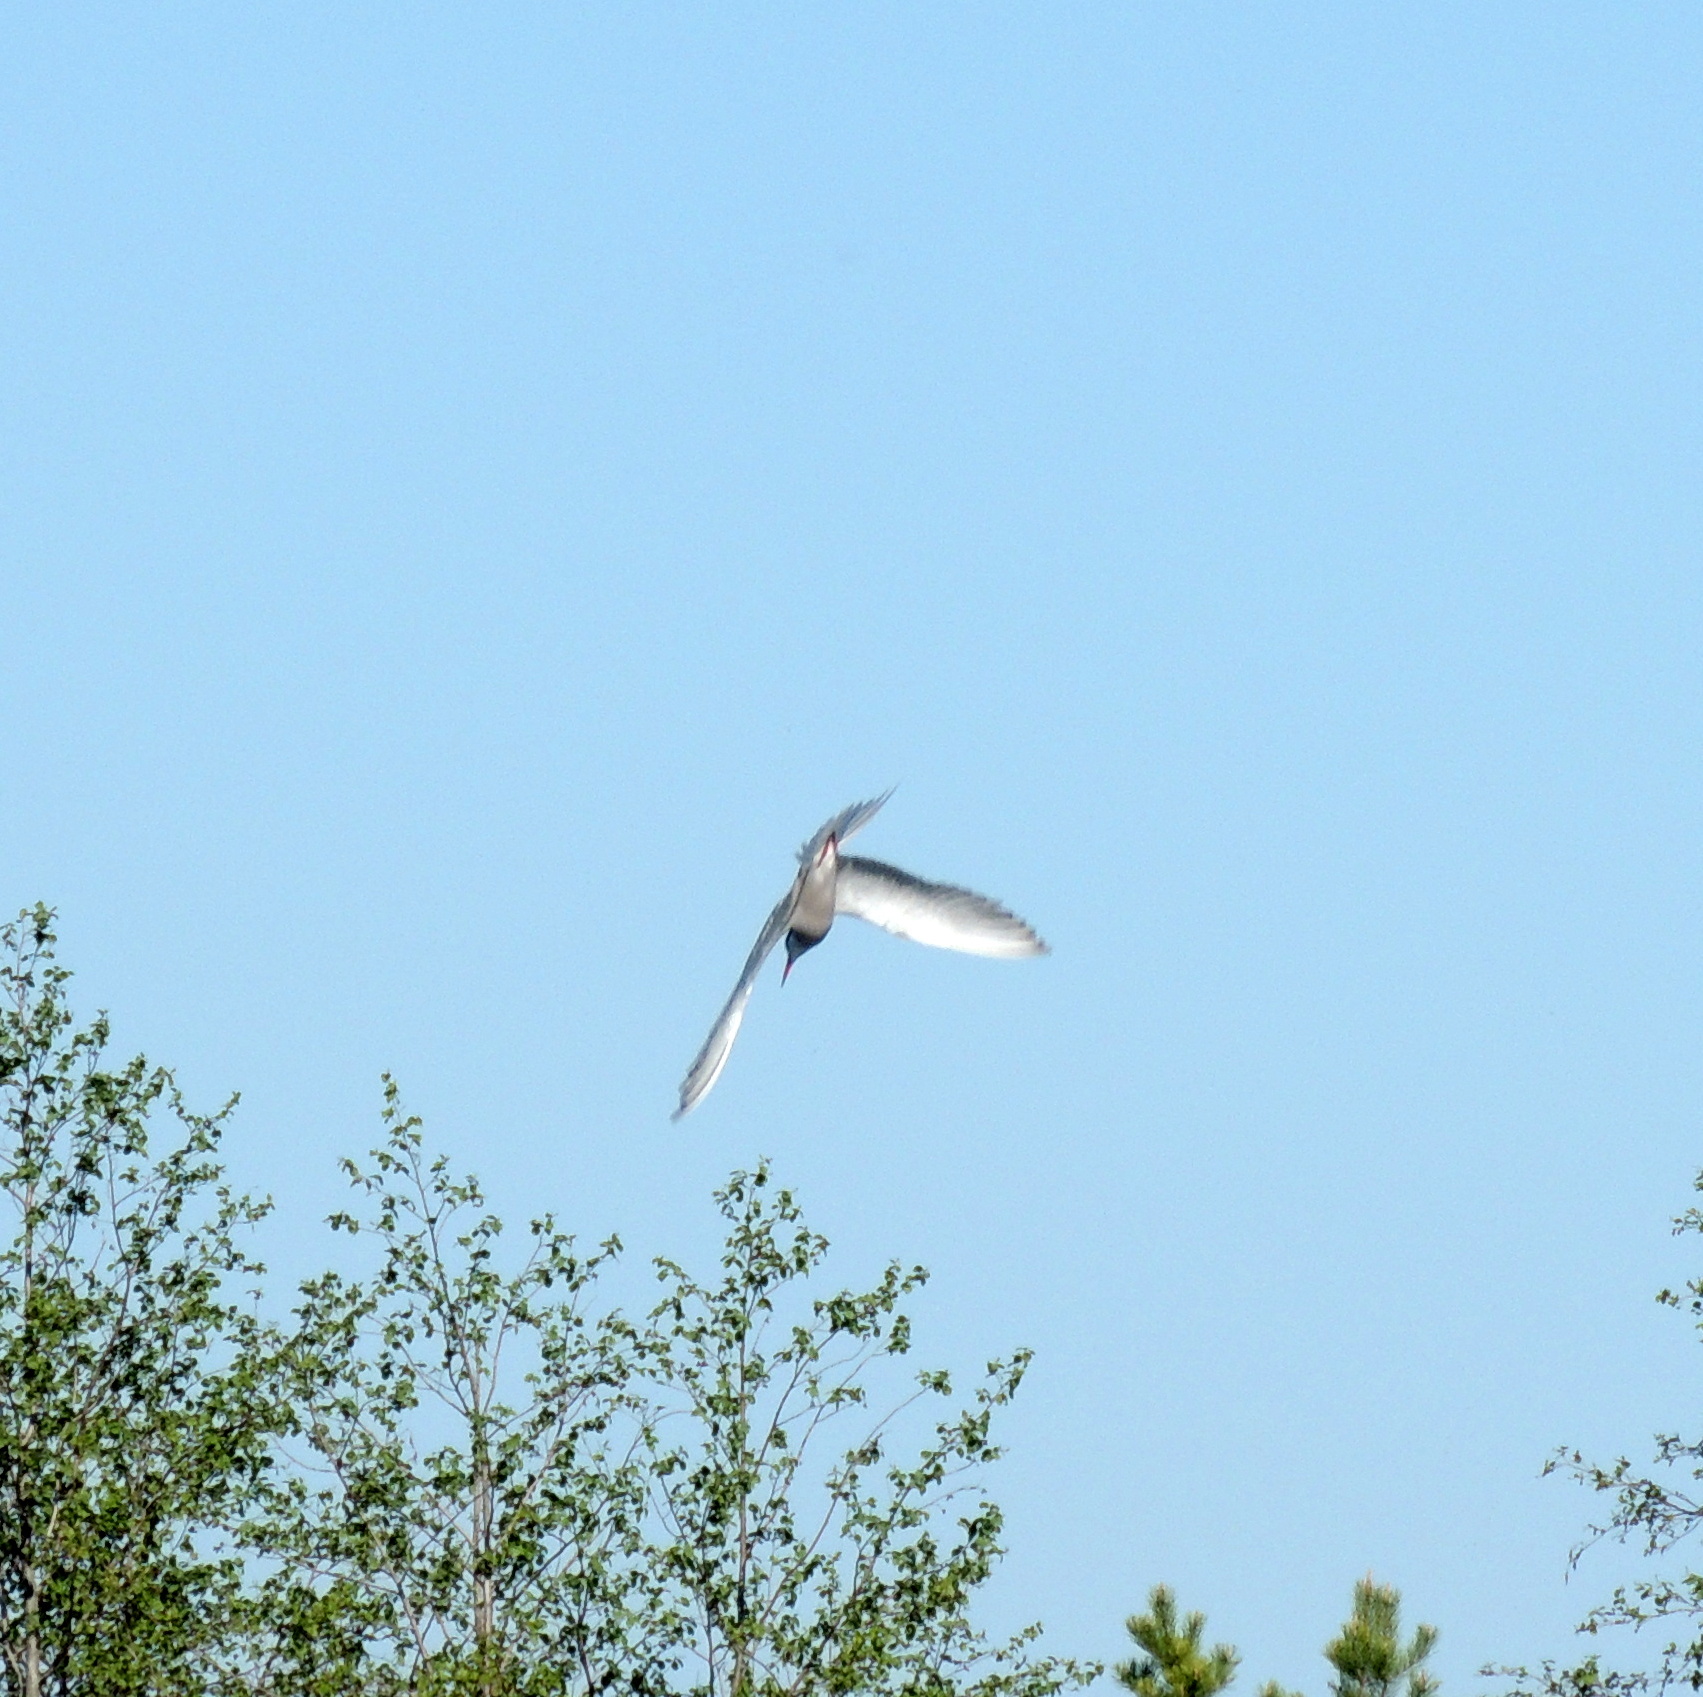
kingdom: Animalia
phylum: Chordata
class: Aves
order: Charadriiformes
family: Laridae
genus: Sterna
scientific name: Sterna hirundo
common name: Common tern
